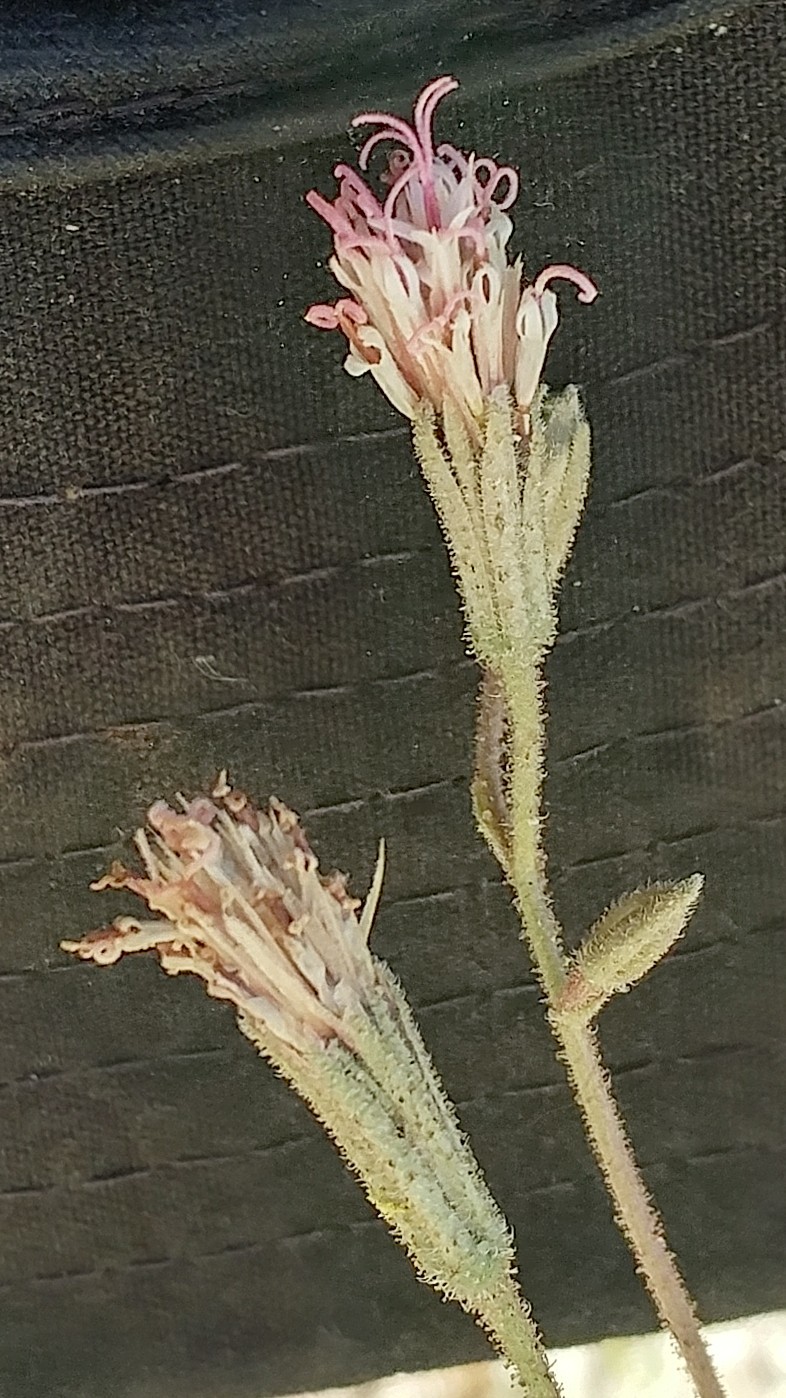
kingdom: Plantae
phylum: Tracheophyta
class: Magnoliopsida
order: Asterales
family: Asteraceae
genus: Palafoxia
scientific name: Palafoxia arida
